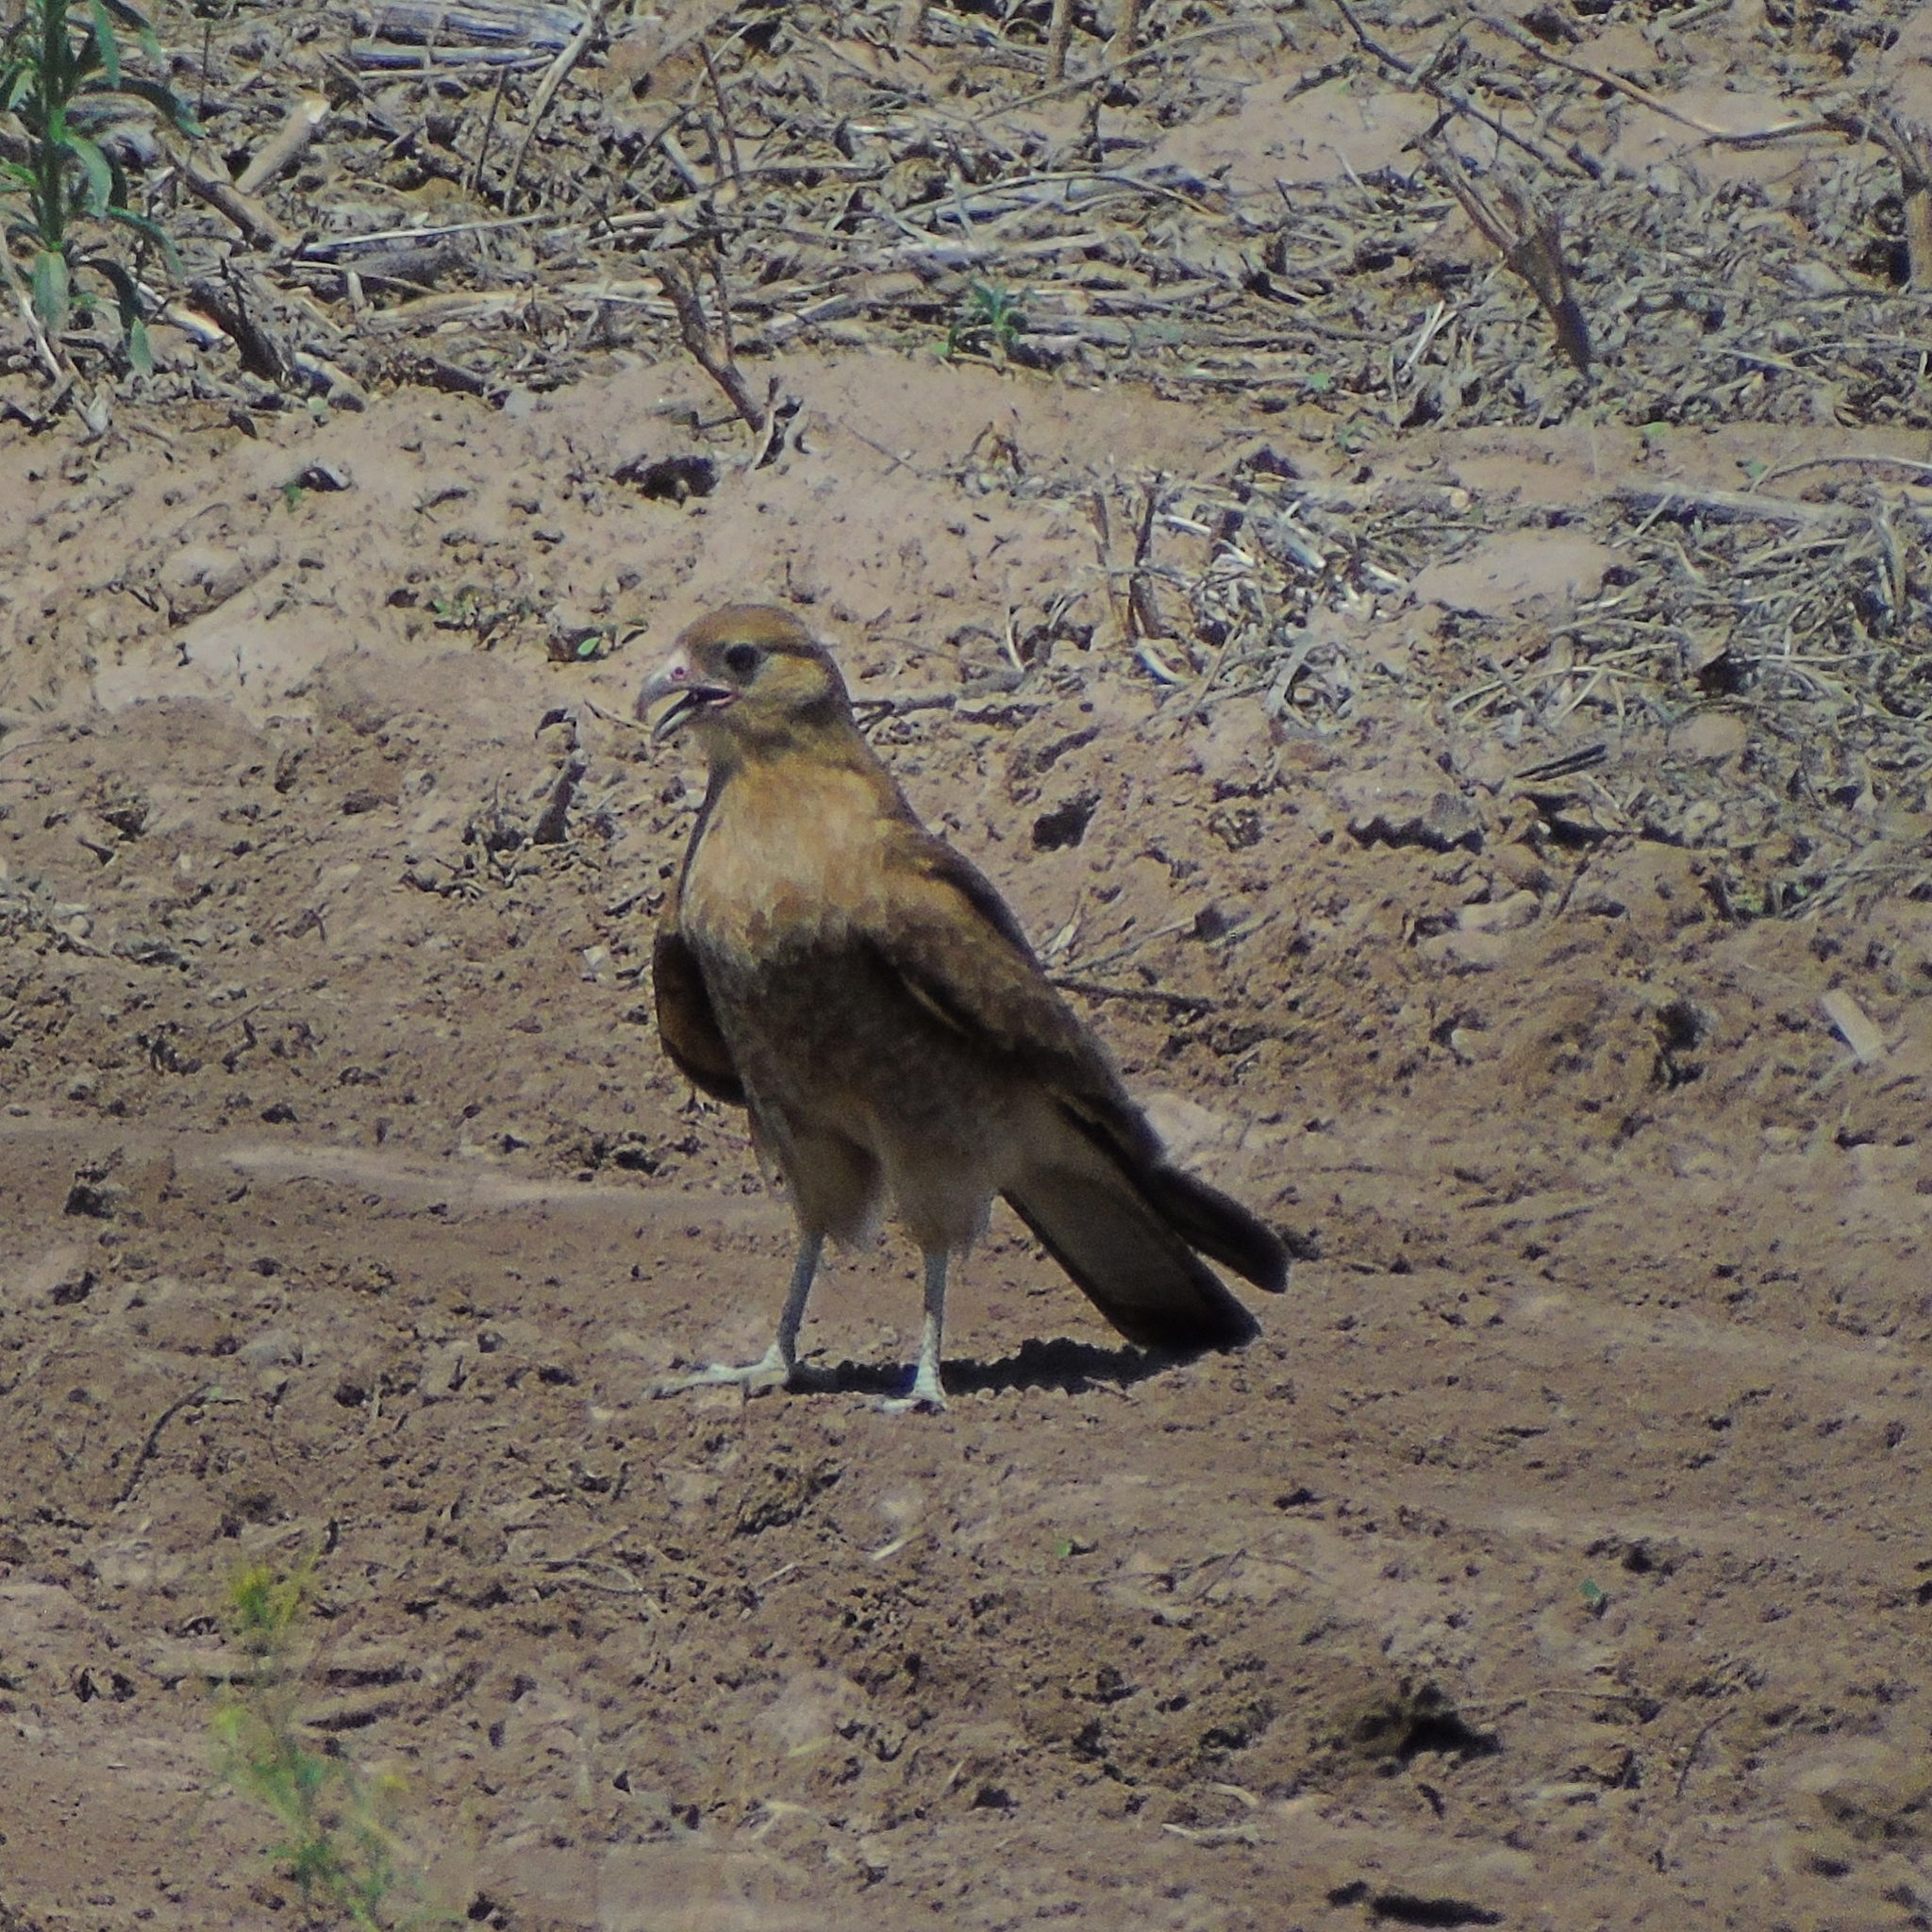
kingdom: Animalia
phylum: Chordata
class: Aves
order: Falconiformes
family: Falconidae
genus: Daptrius
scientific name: Daptrius
